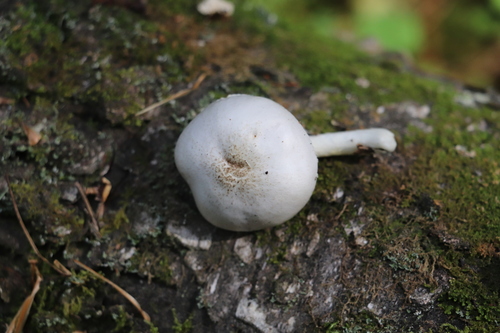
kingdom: Fungi
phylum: Basidiomycota
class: Agaricomycetes
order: Agaricales
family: Pluteaceae
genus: Pluteus
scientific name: Pluteus petasatus
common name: Scaly shield
